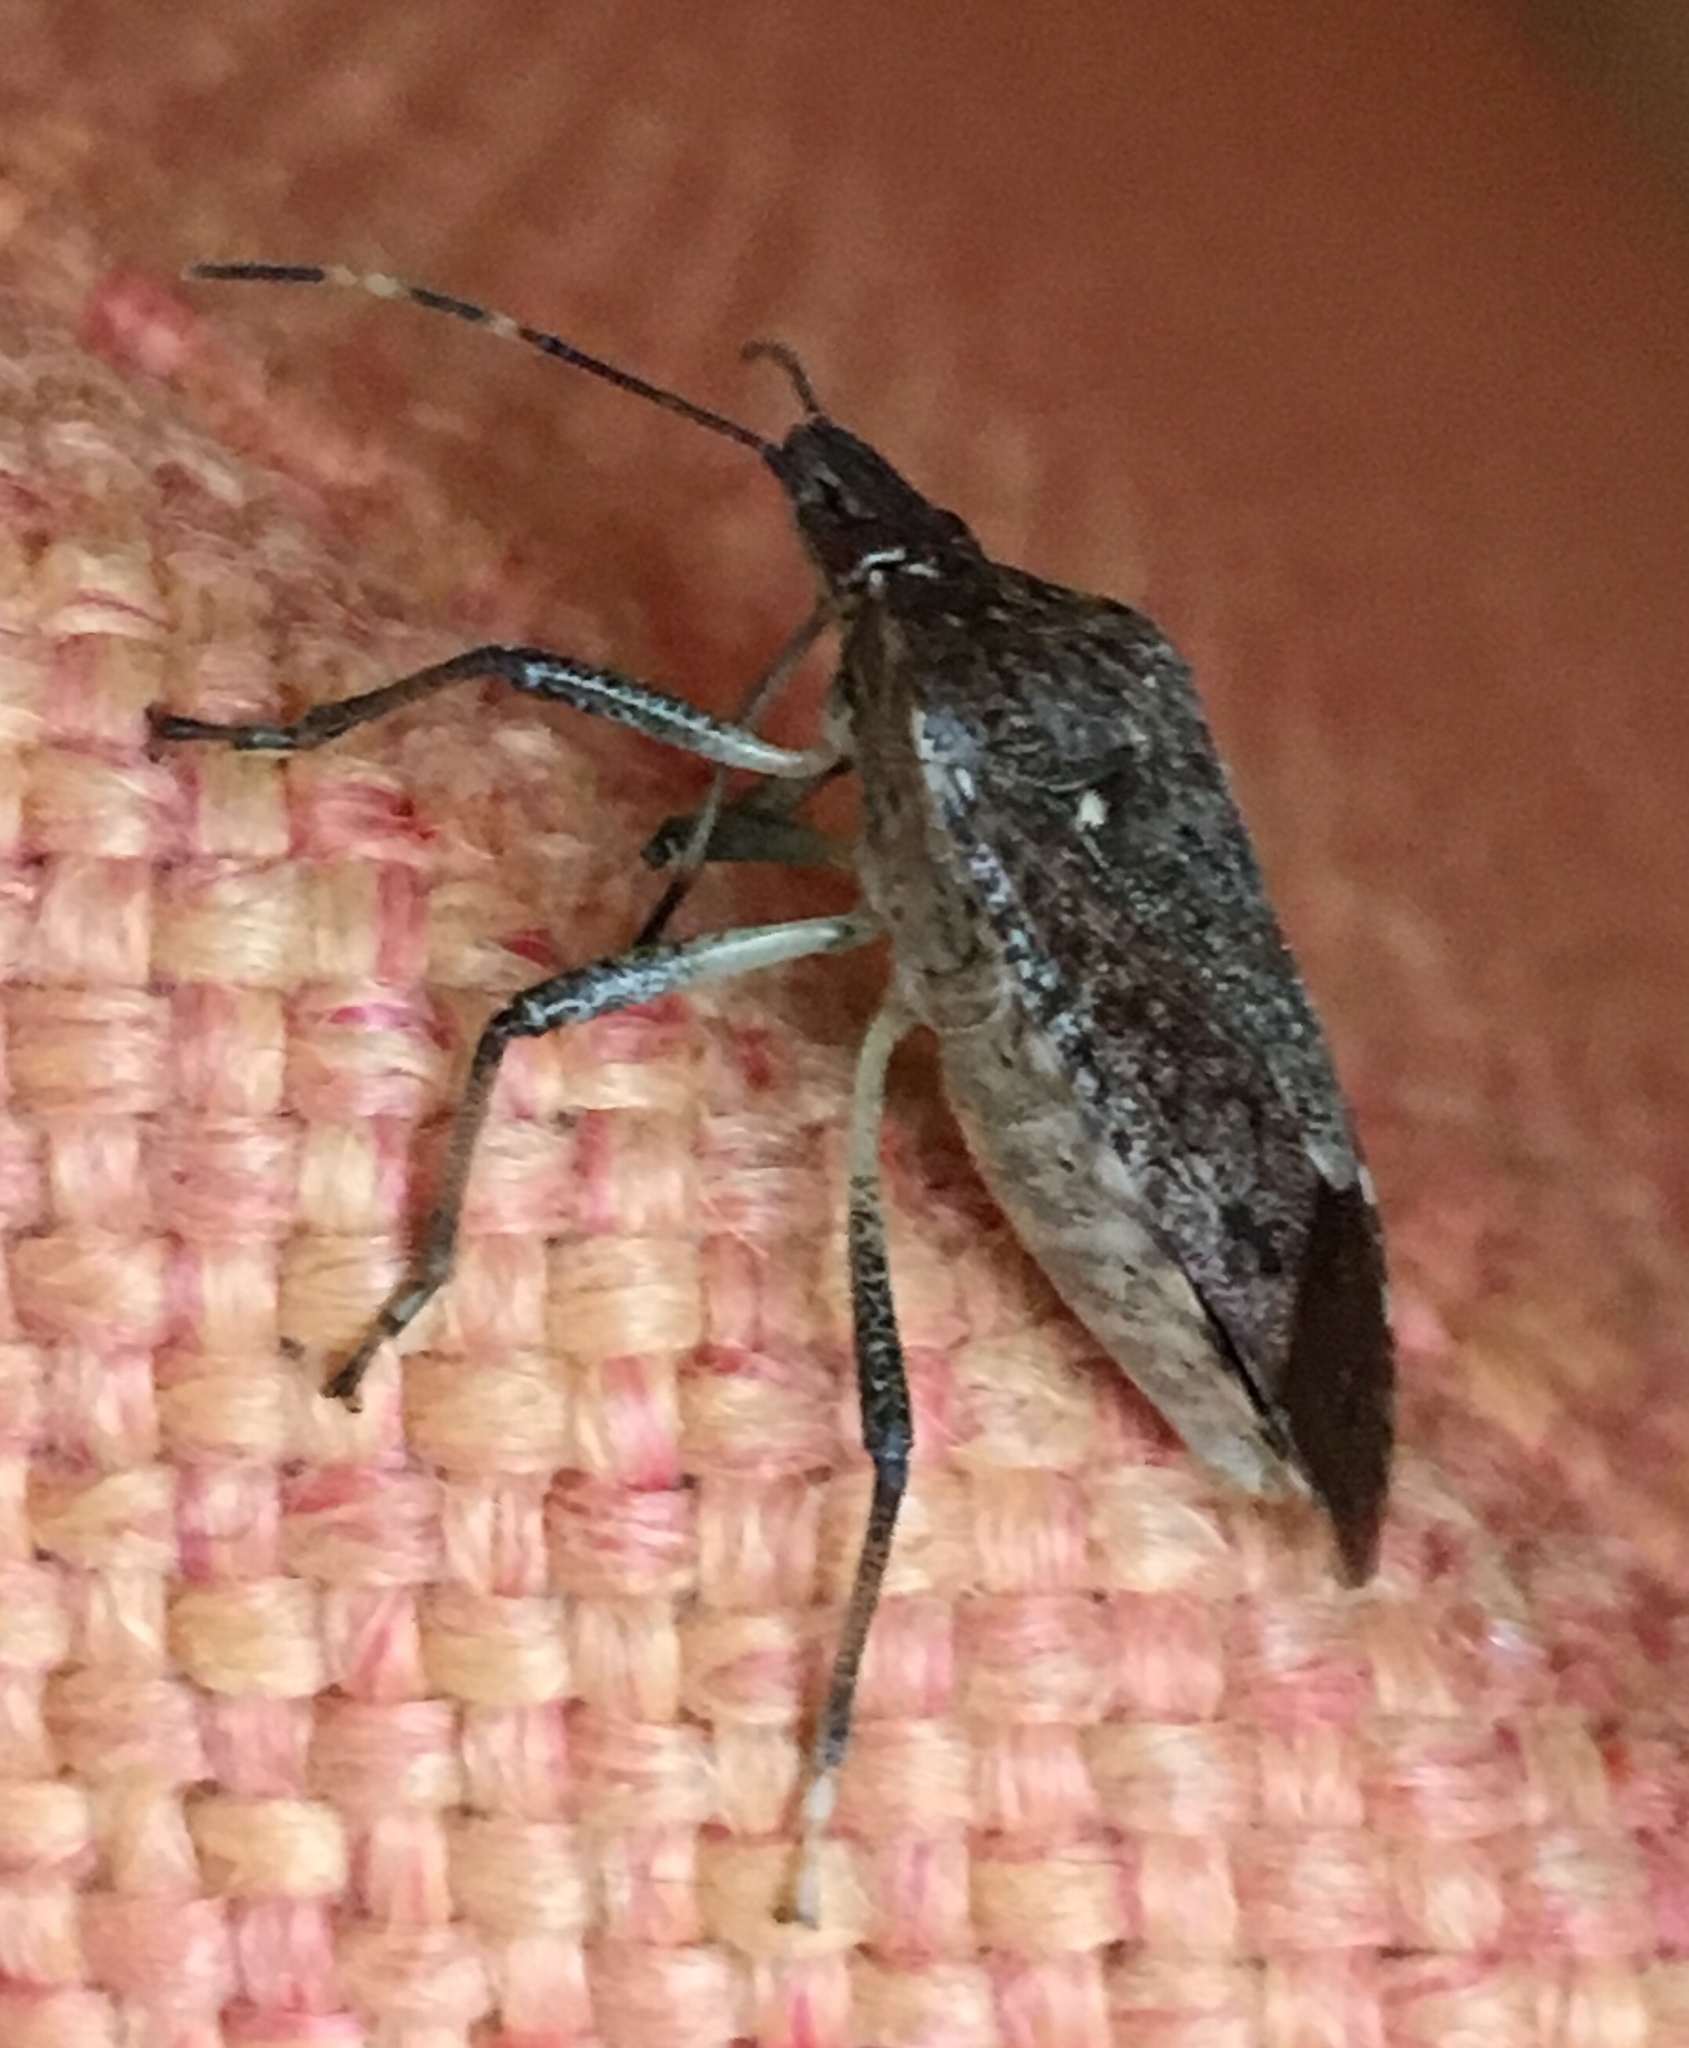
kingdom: Animalia
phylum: Arthropoda
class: Insecta
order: Hemiptera
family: Pentatomidae
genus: Halyomorpha
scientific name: Halyomorpha halys
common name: Brown marmorated stink bug
